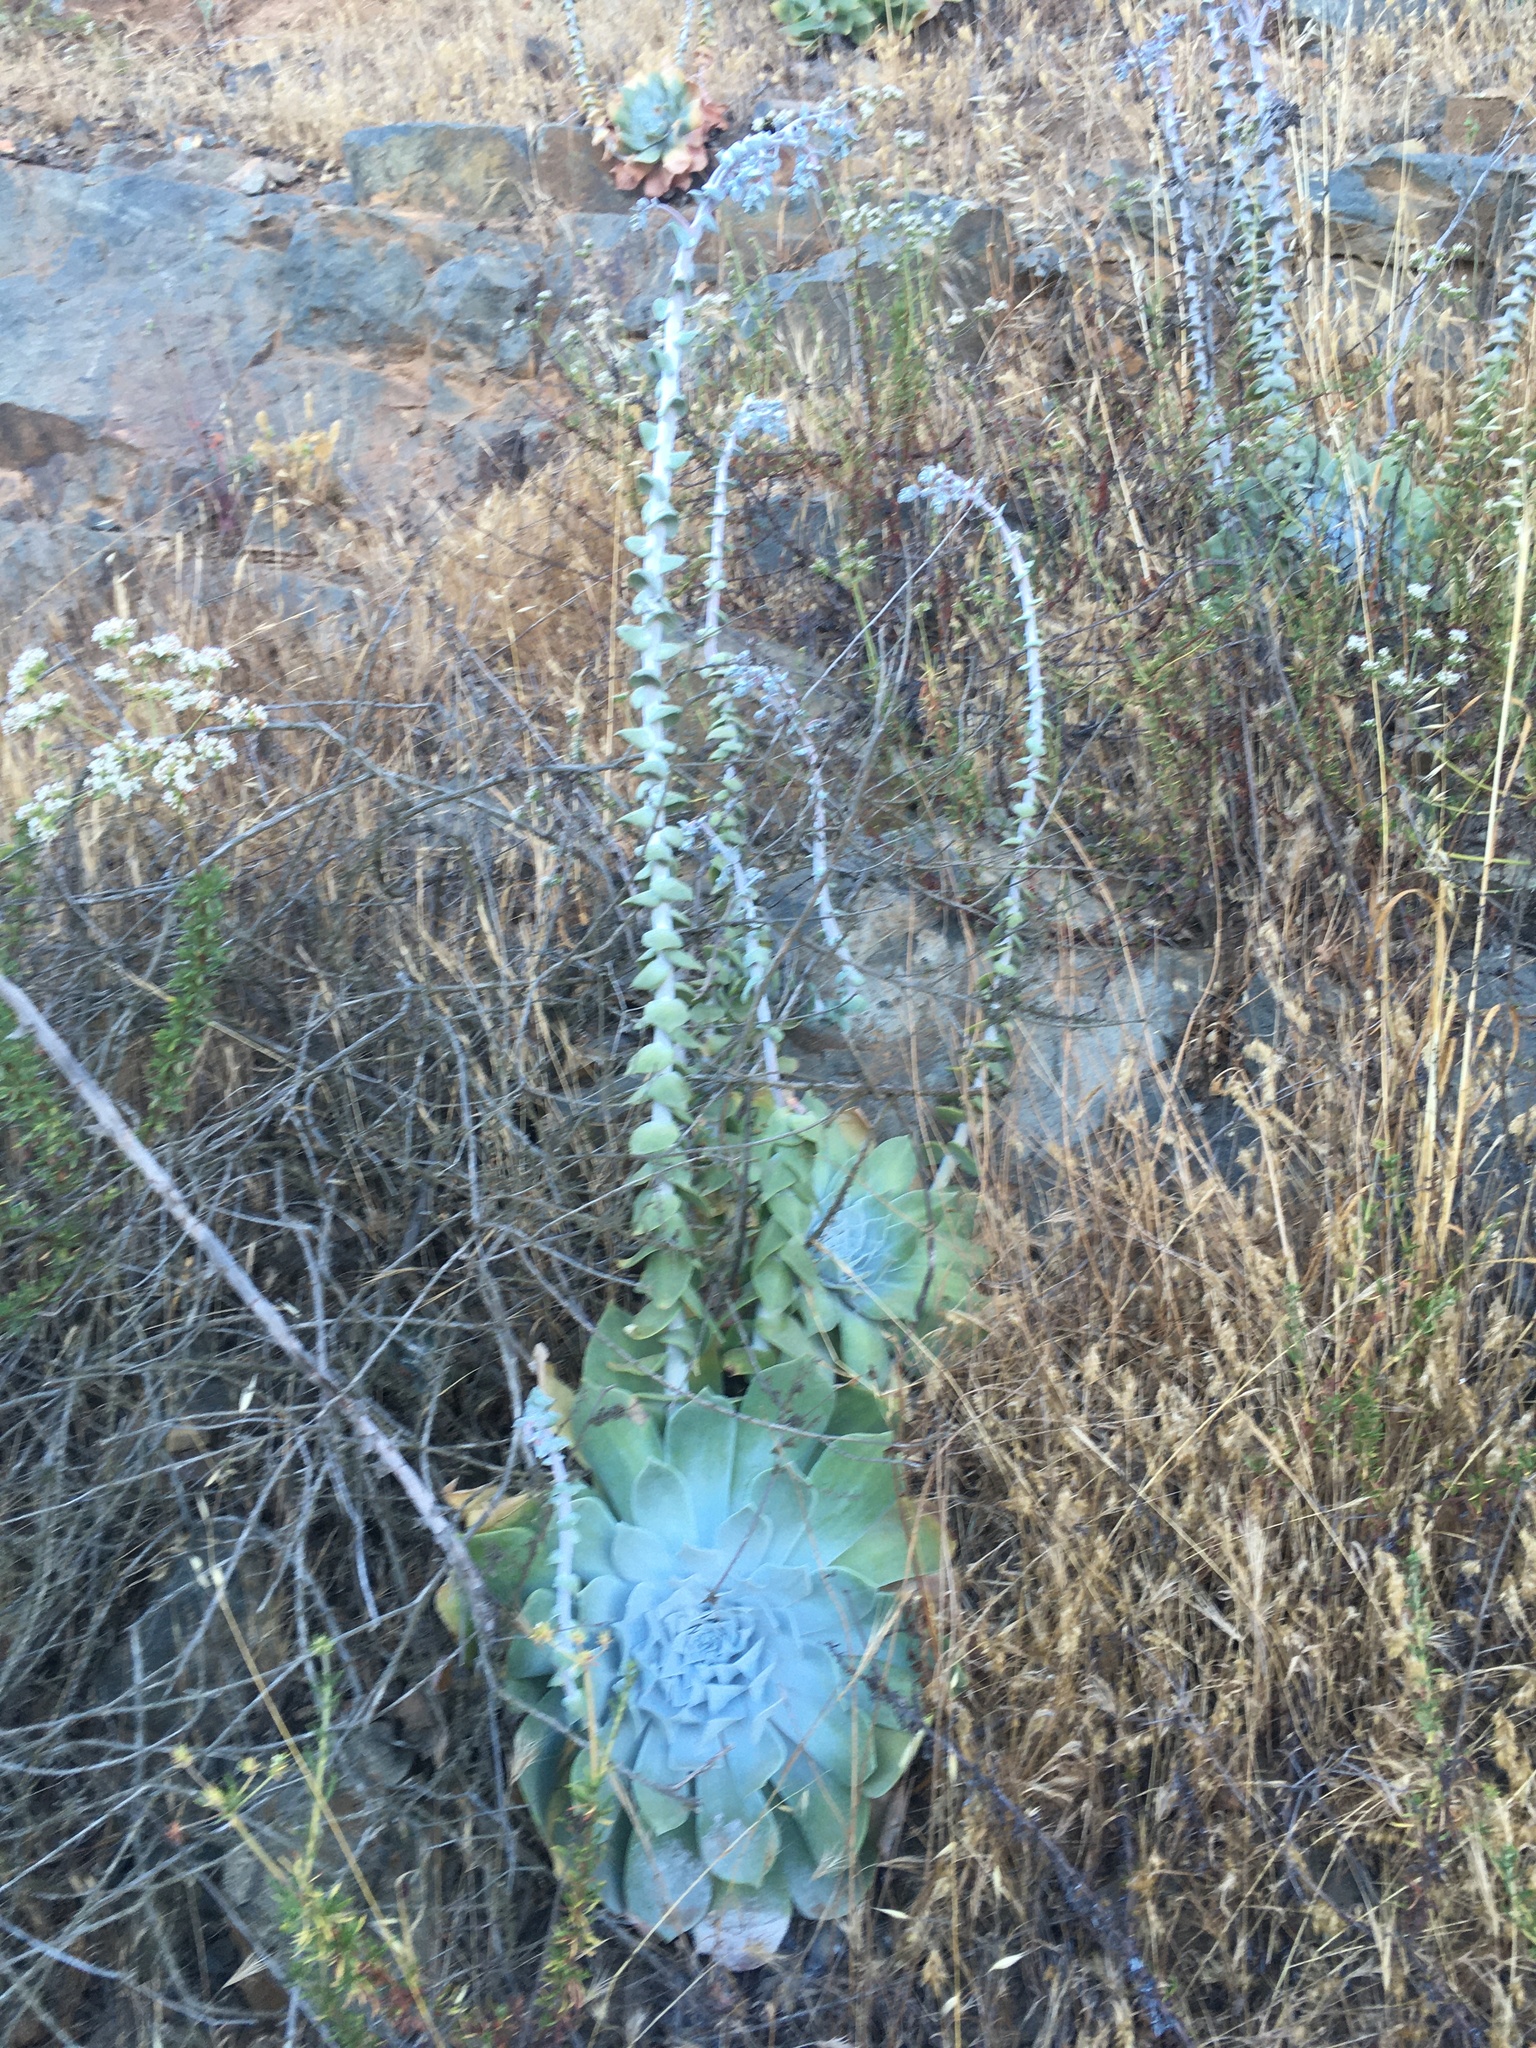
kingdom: Plantae
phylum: Tracheophyta
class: Magnoliopsida
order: Saxifragales
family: Crassulaceae
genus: Dudleya
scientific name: Dudleya pulverulenta
